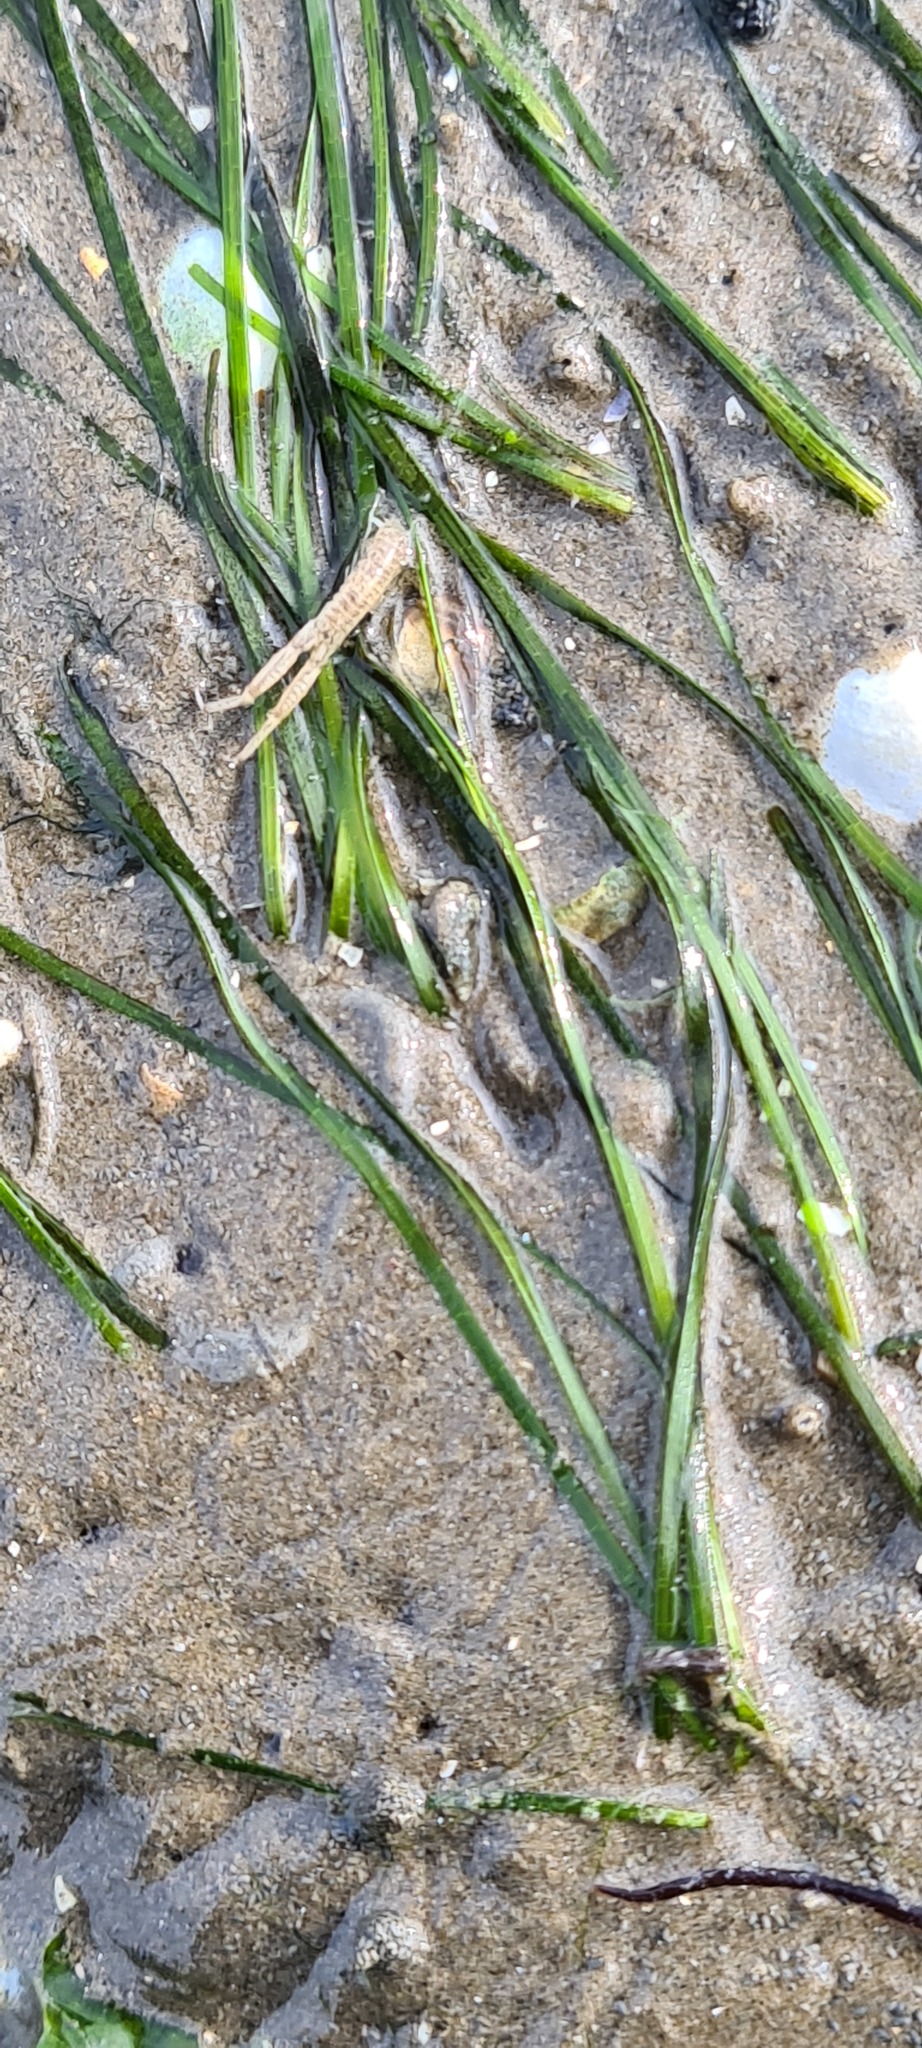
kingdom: Animalia
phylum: Arthropoda
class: Malacostraca
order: Amphipoda
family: Corophiidae
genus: Corophium
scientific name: Corophium volutator
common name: Mud shrimp
